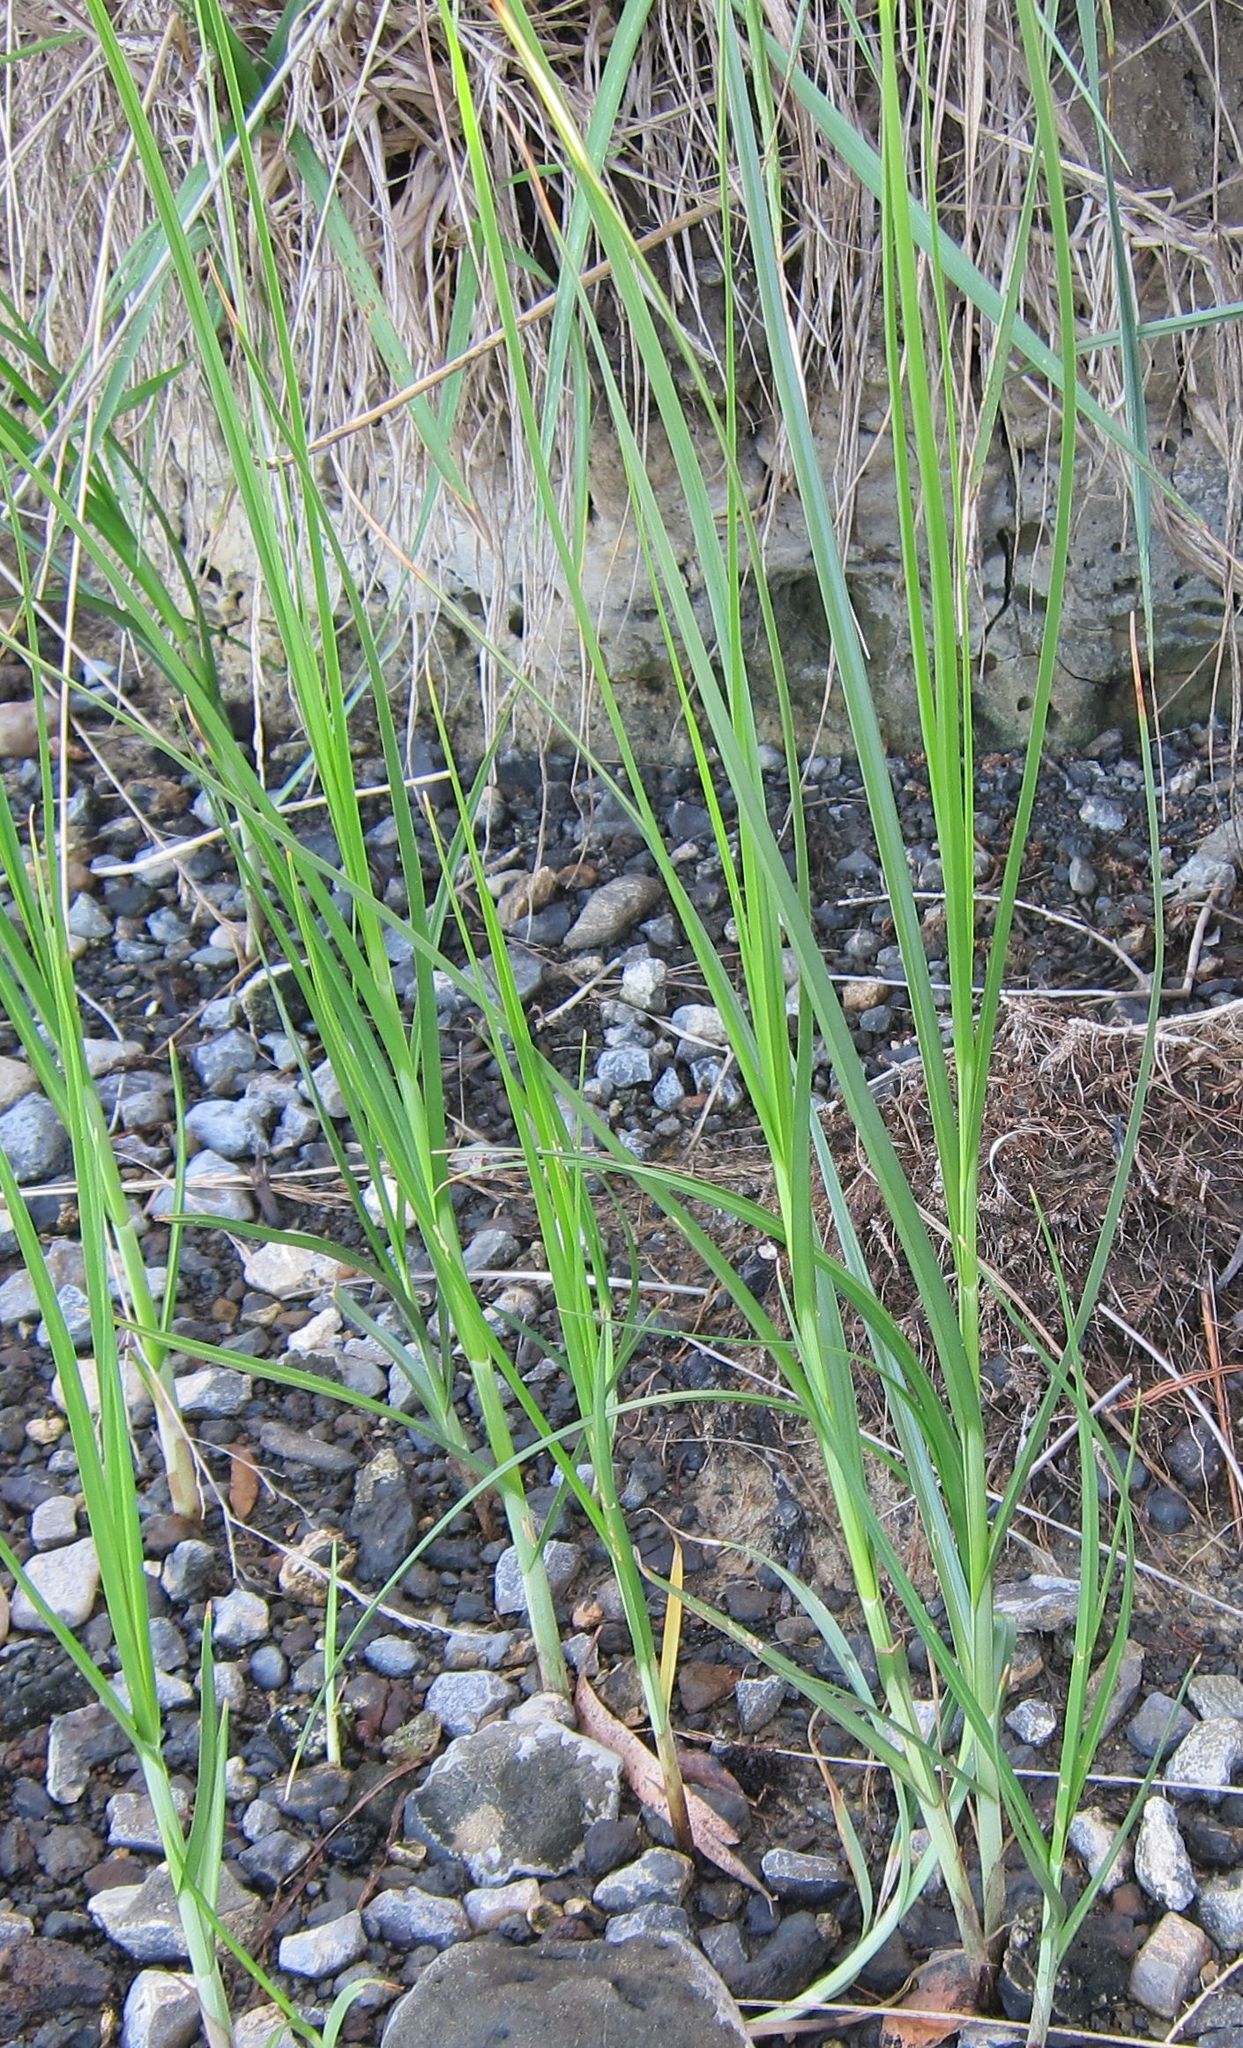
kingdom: Plantae
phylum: Tracheophyta
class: Liliopsida
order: Poales
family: Cyperaceae
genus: Bolboschoenus
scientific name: Bolboschoenus caldwellii
